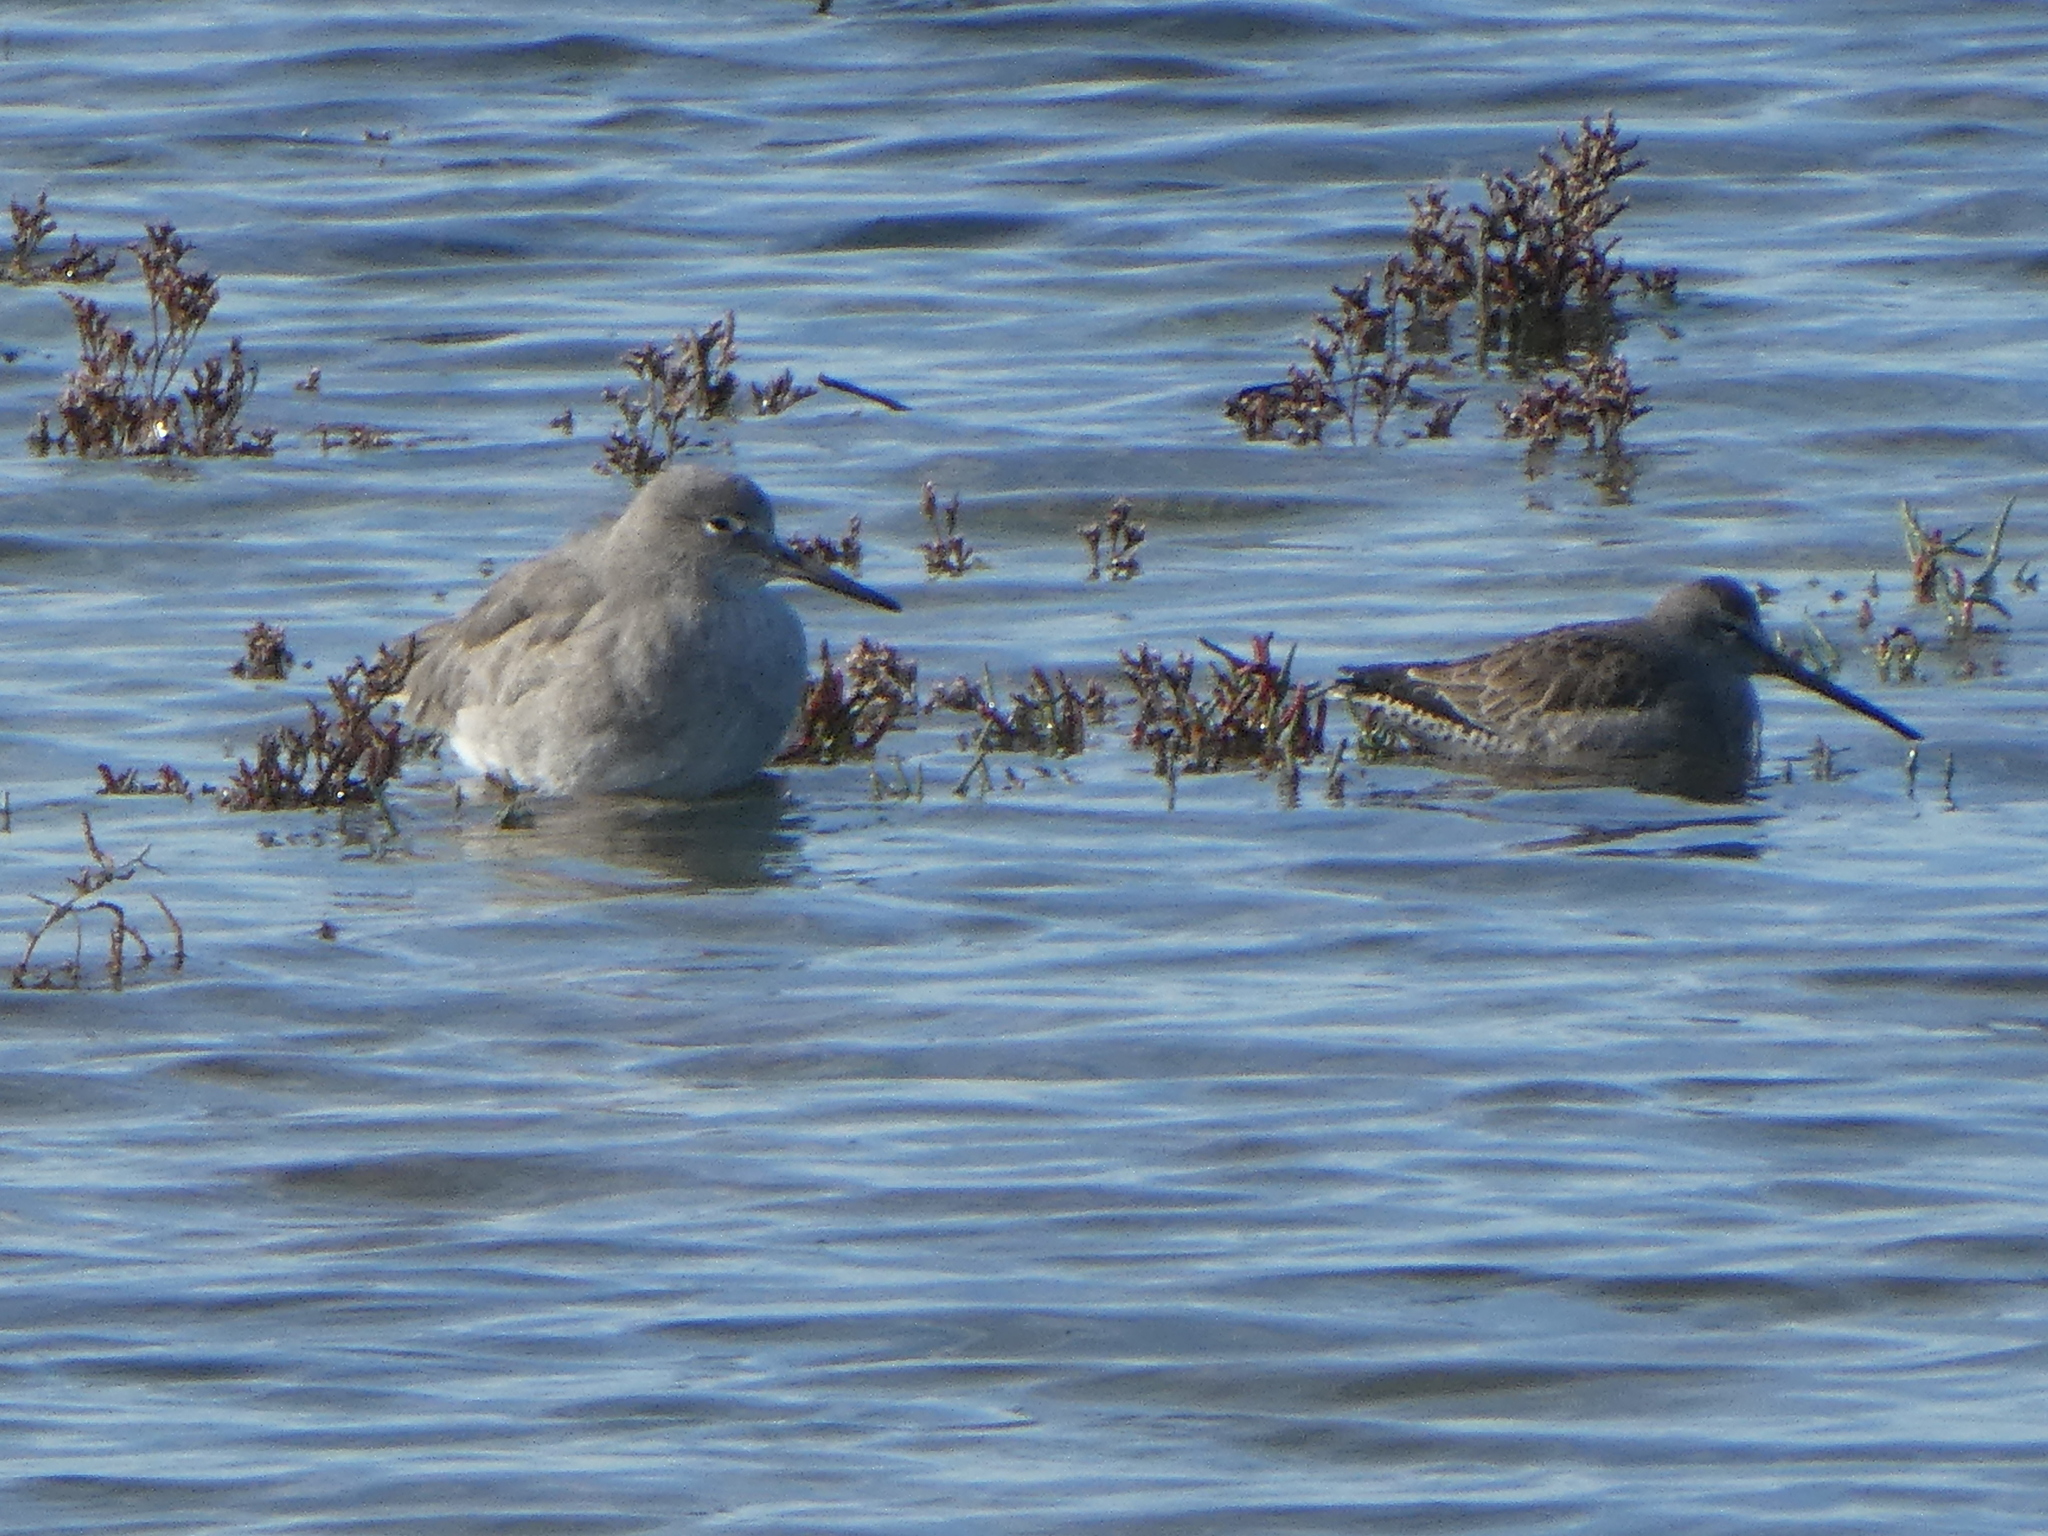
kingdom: Animalia
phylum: Chordata
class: Aves
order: Charadriiformes
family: Scolopacidae
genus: Tringa
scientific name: Tringa semipalmata
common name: Willet
